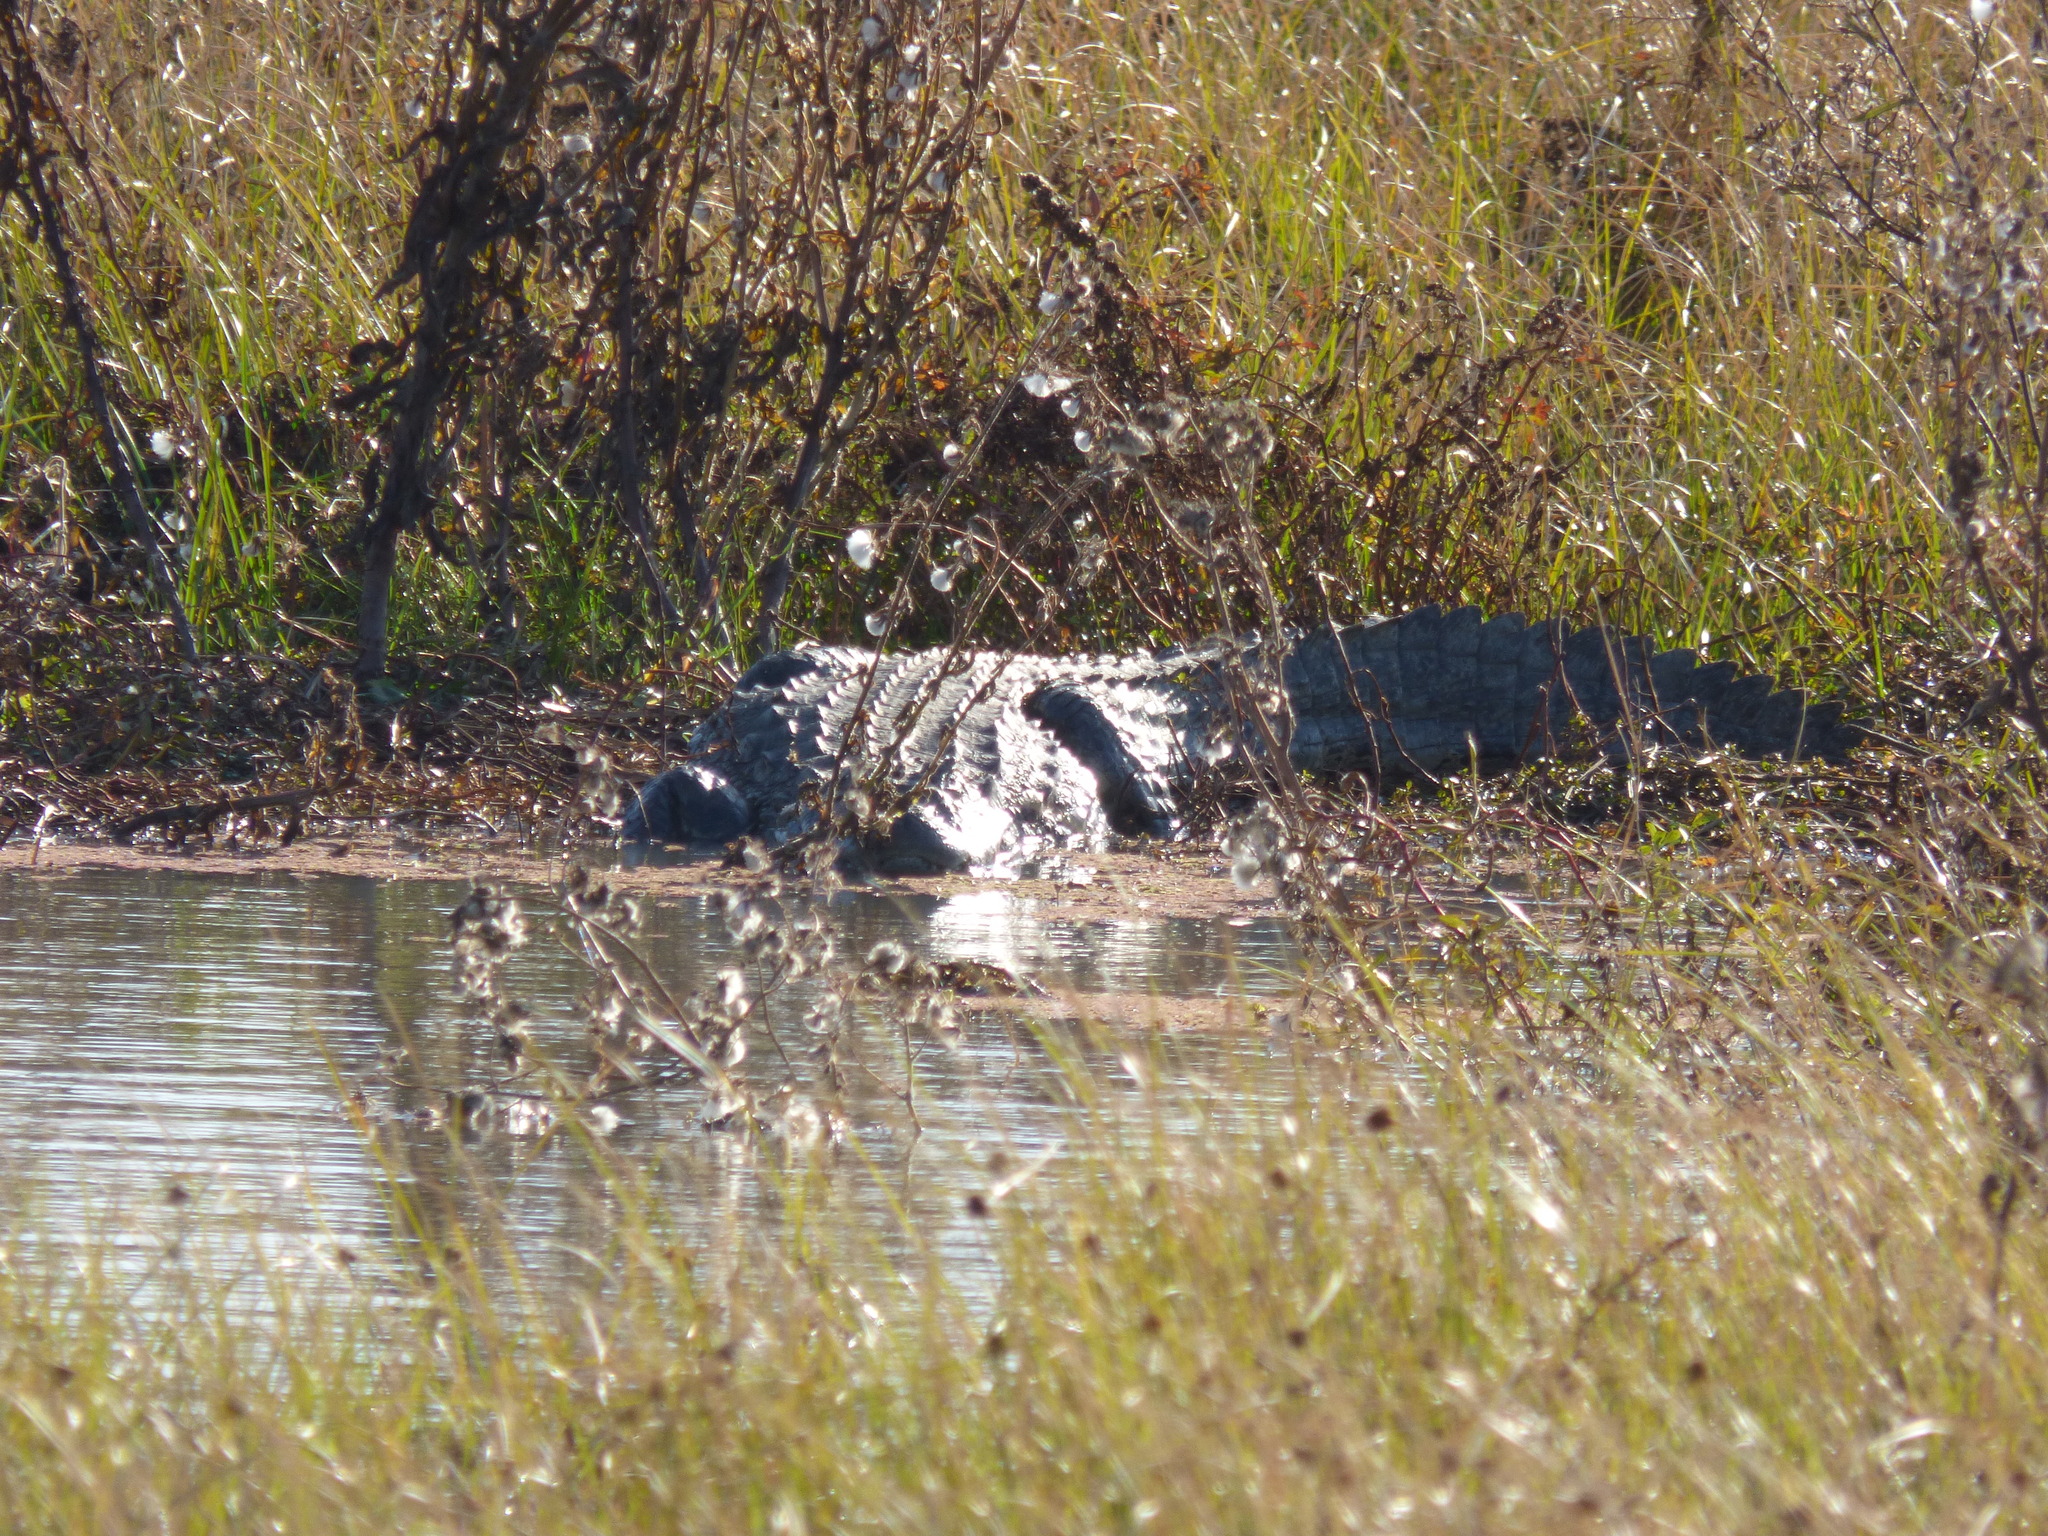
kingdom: Animalia
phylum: Chordata
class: Crocodylia
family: Alligatoridae
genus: Caiman
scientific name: Caiman latirostris
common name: Broad-snouted caiman
